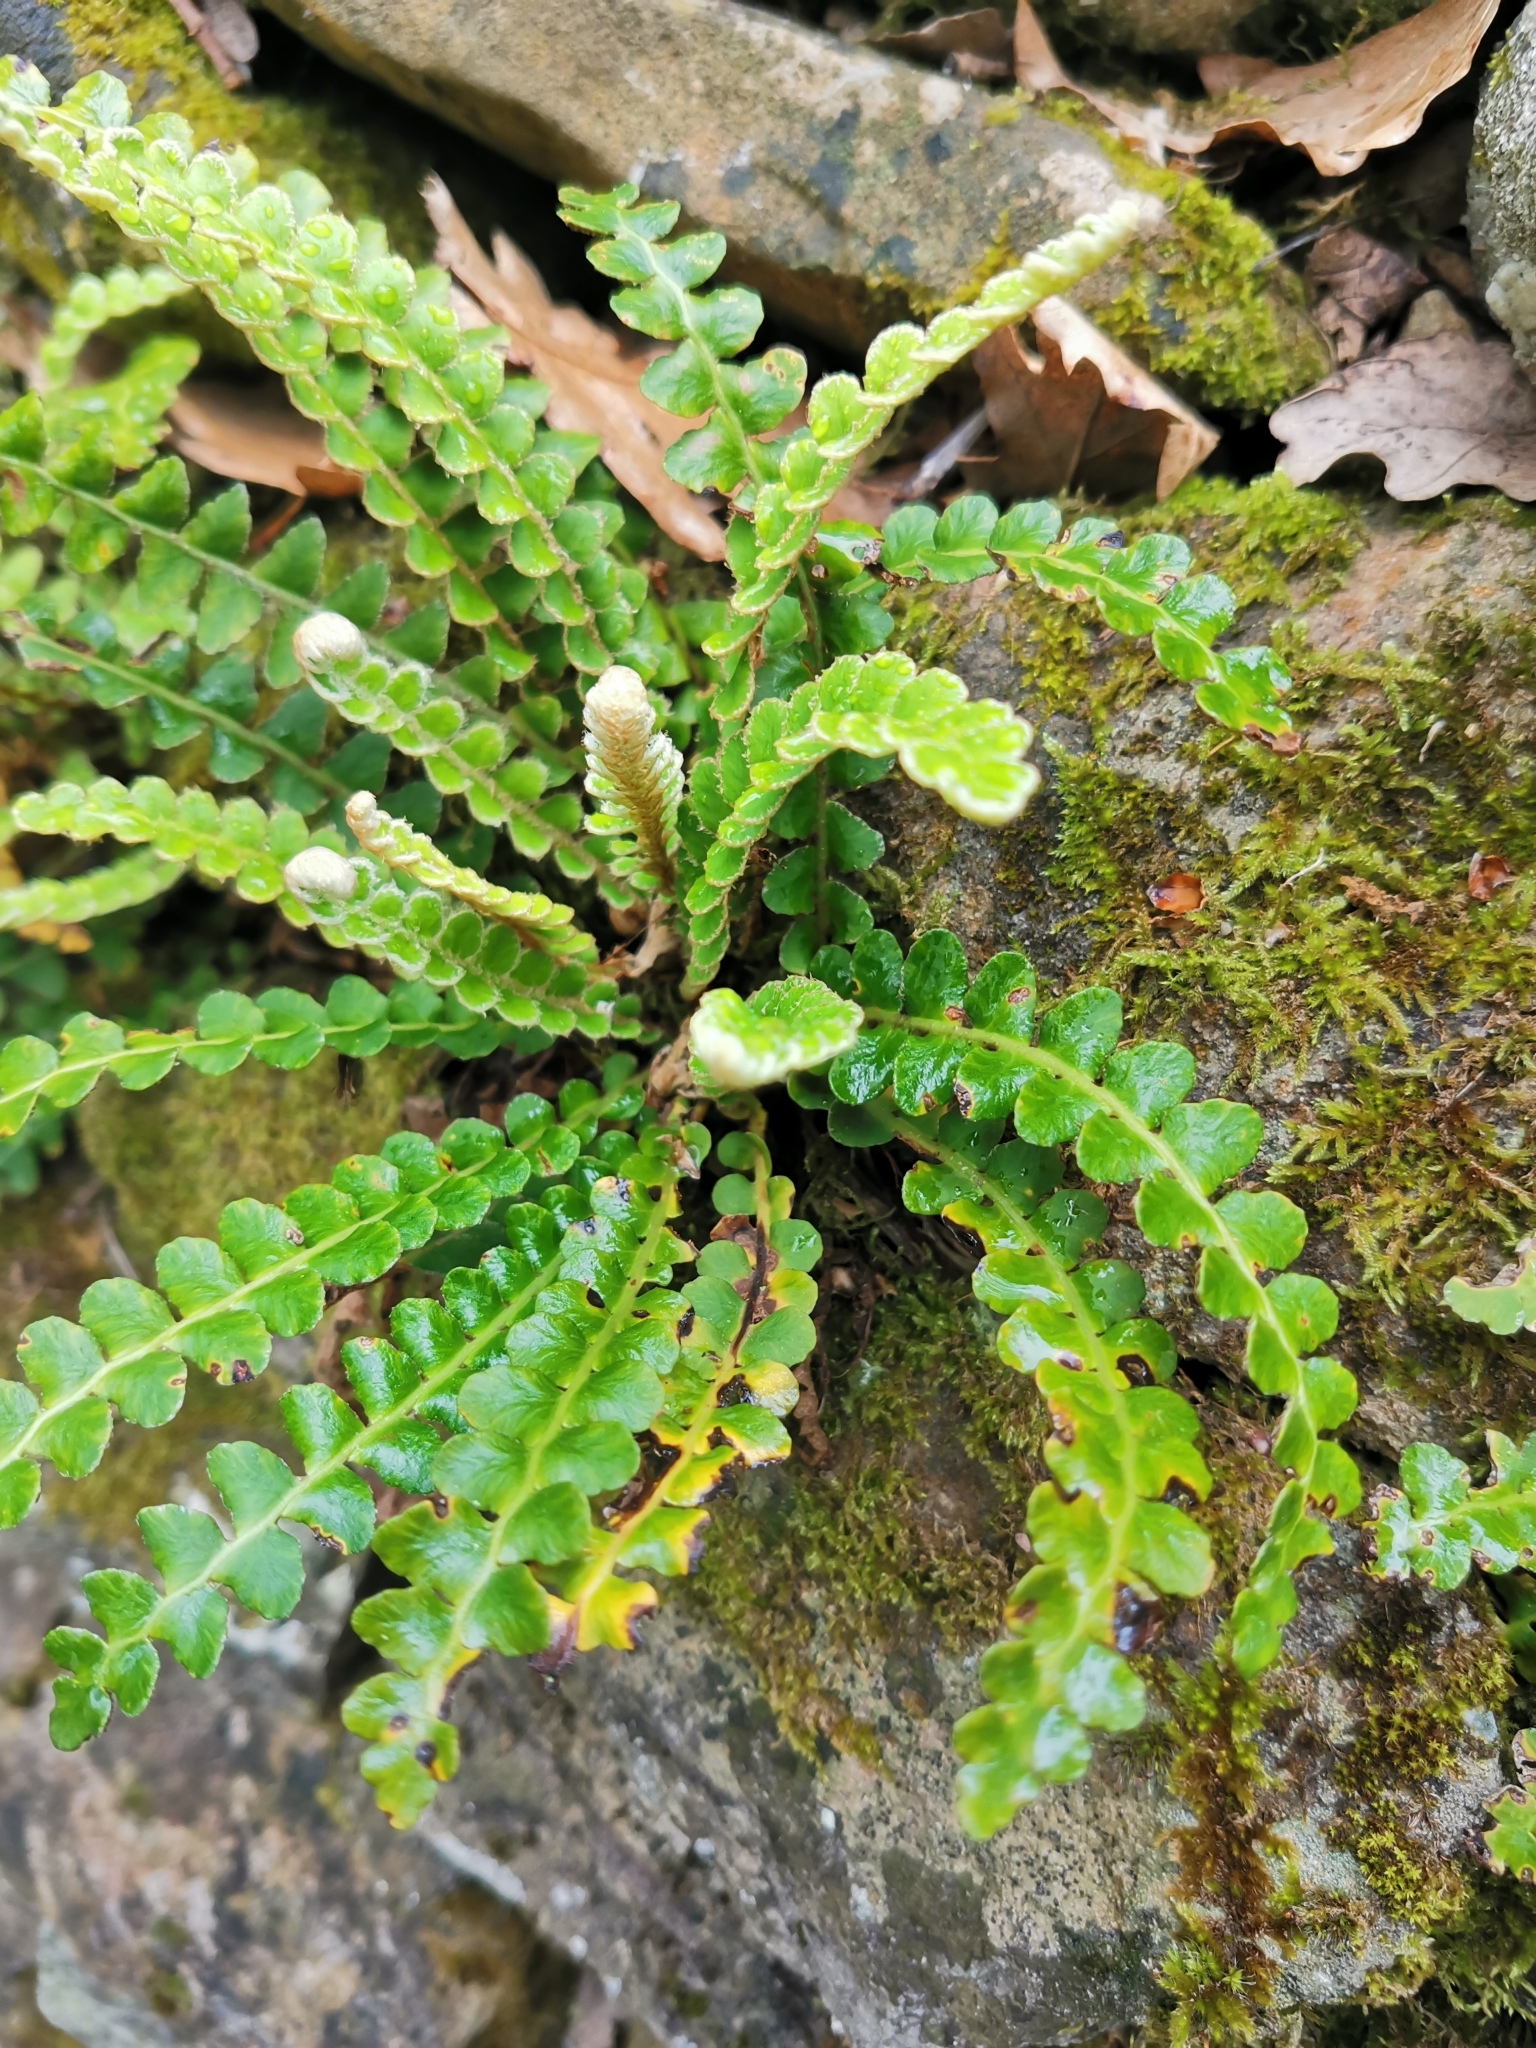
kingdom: Plantae
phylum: Tracheophyta
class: Polypodiopsida
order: Polypodiales
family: Aspleniaceae
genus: Asplenium
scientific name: Asplenium ceterach
